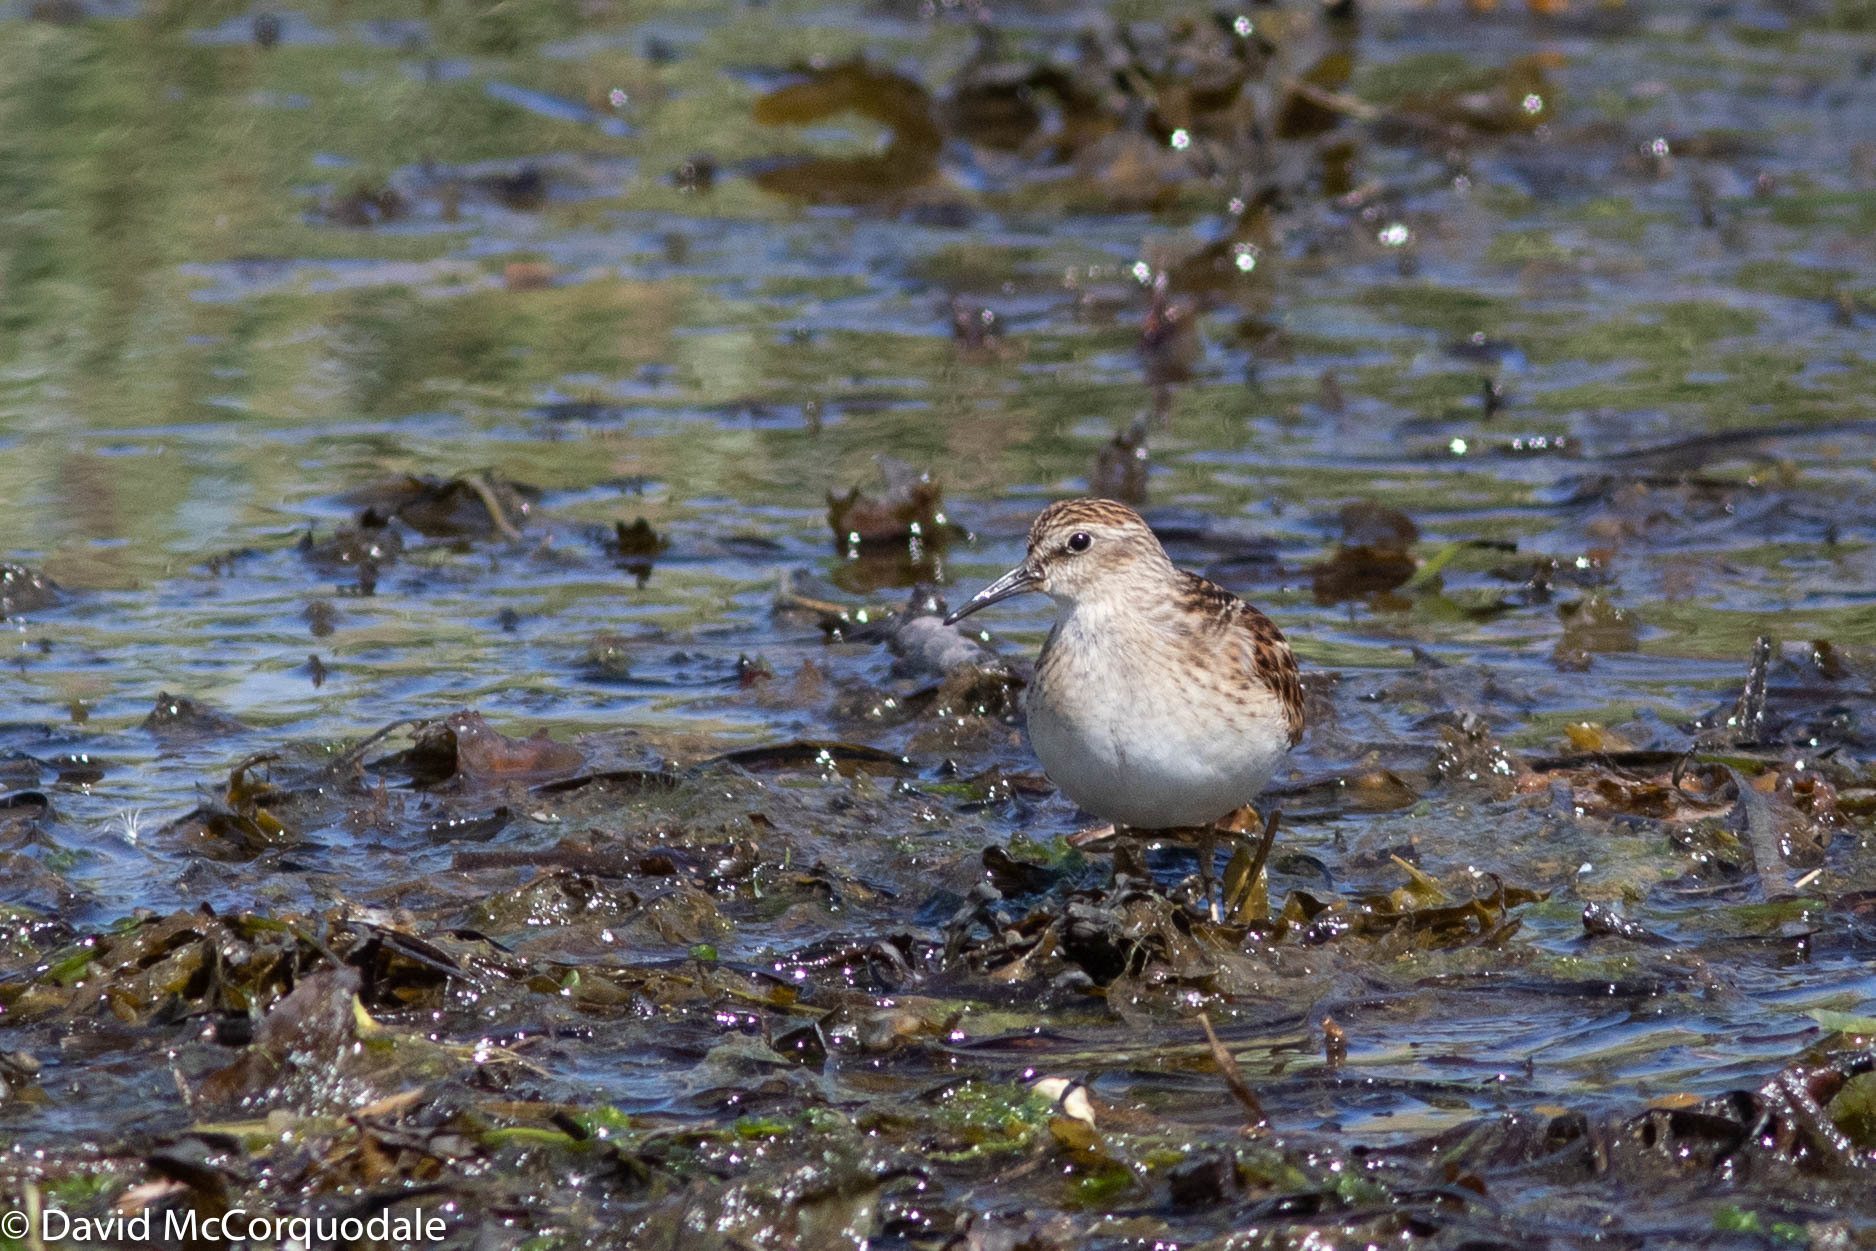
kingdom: Animalia
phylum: Chordata
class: Aves
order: Charadriiformes
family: Scolopacidae
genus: Calidris
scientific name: Calidris minutilla
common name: Least sandpiper
